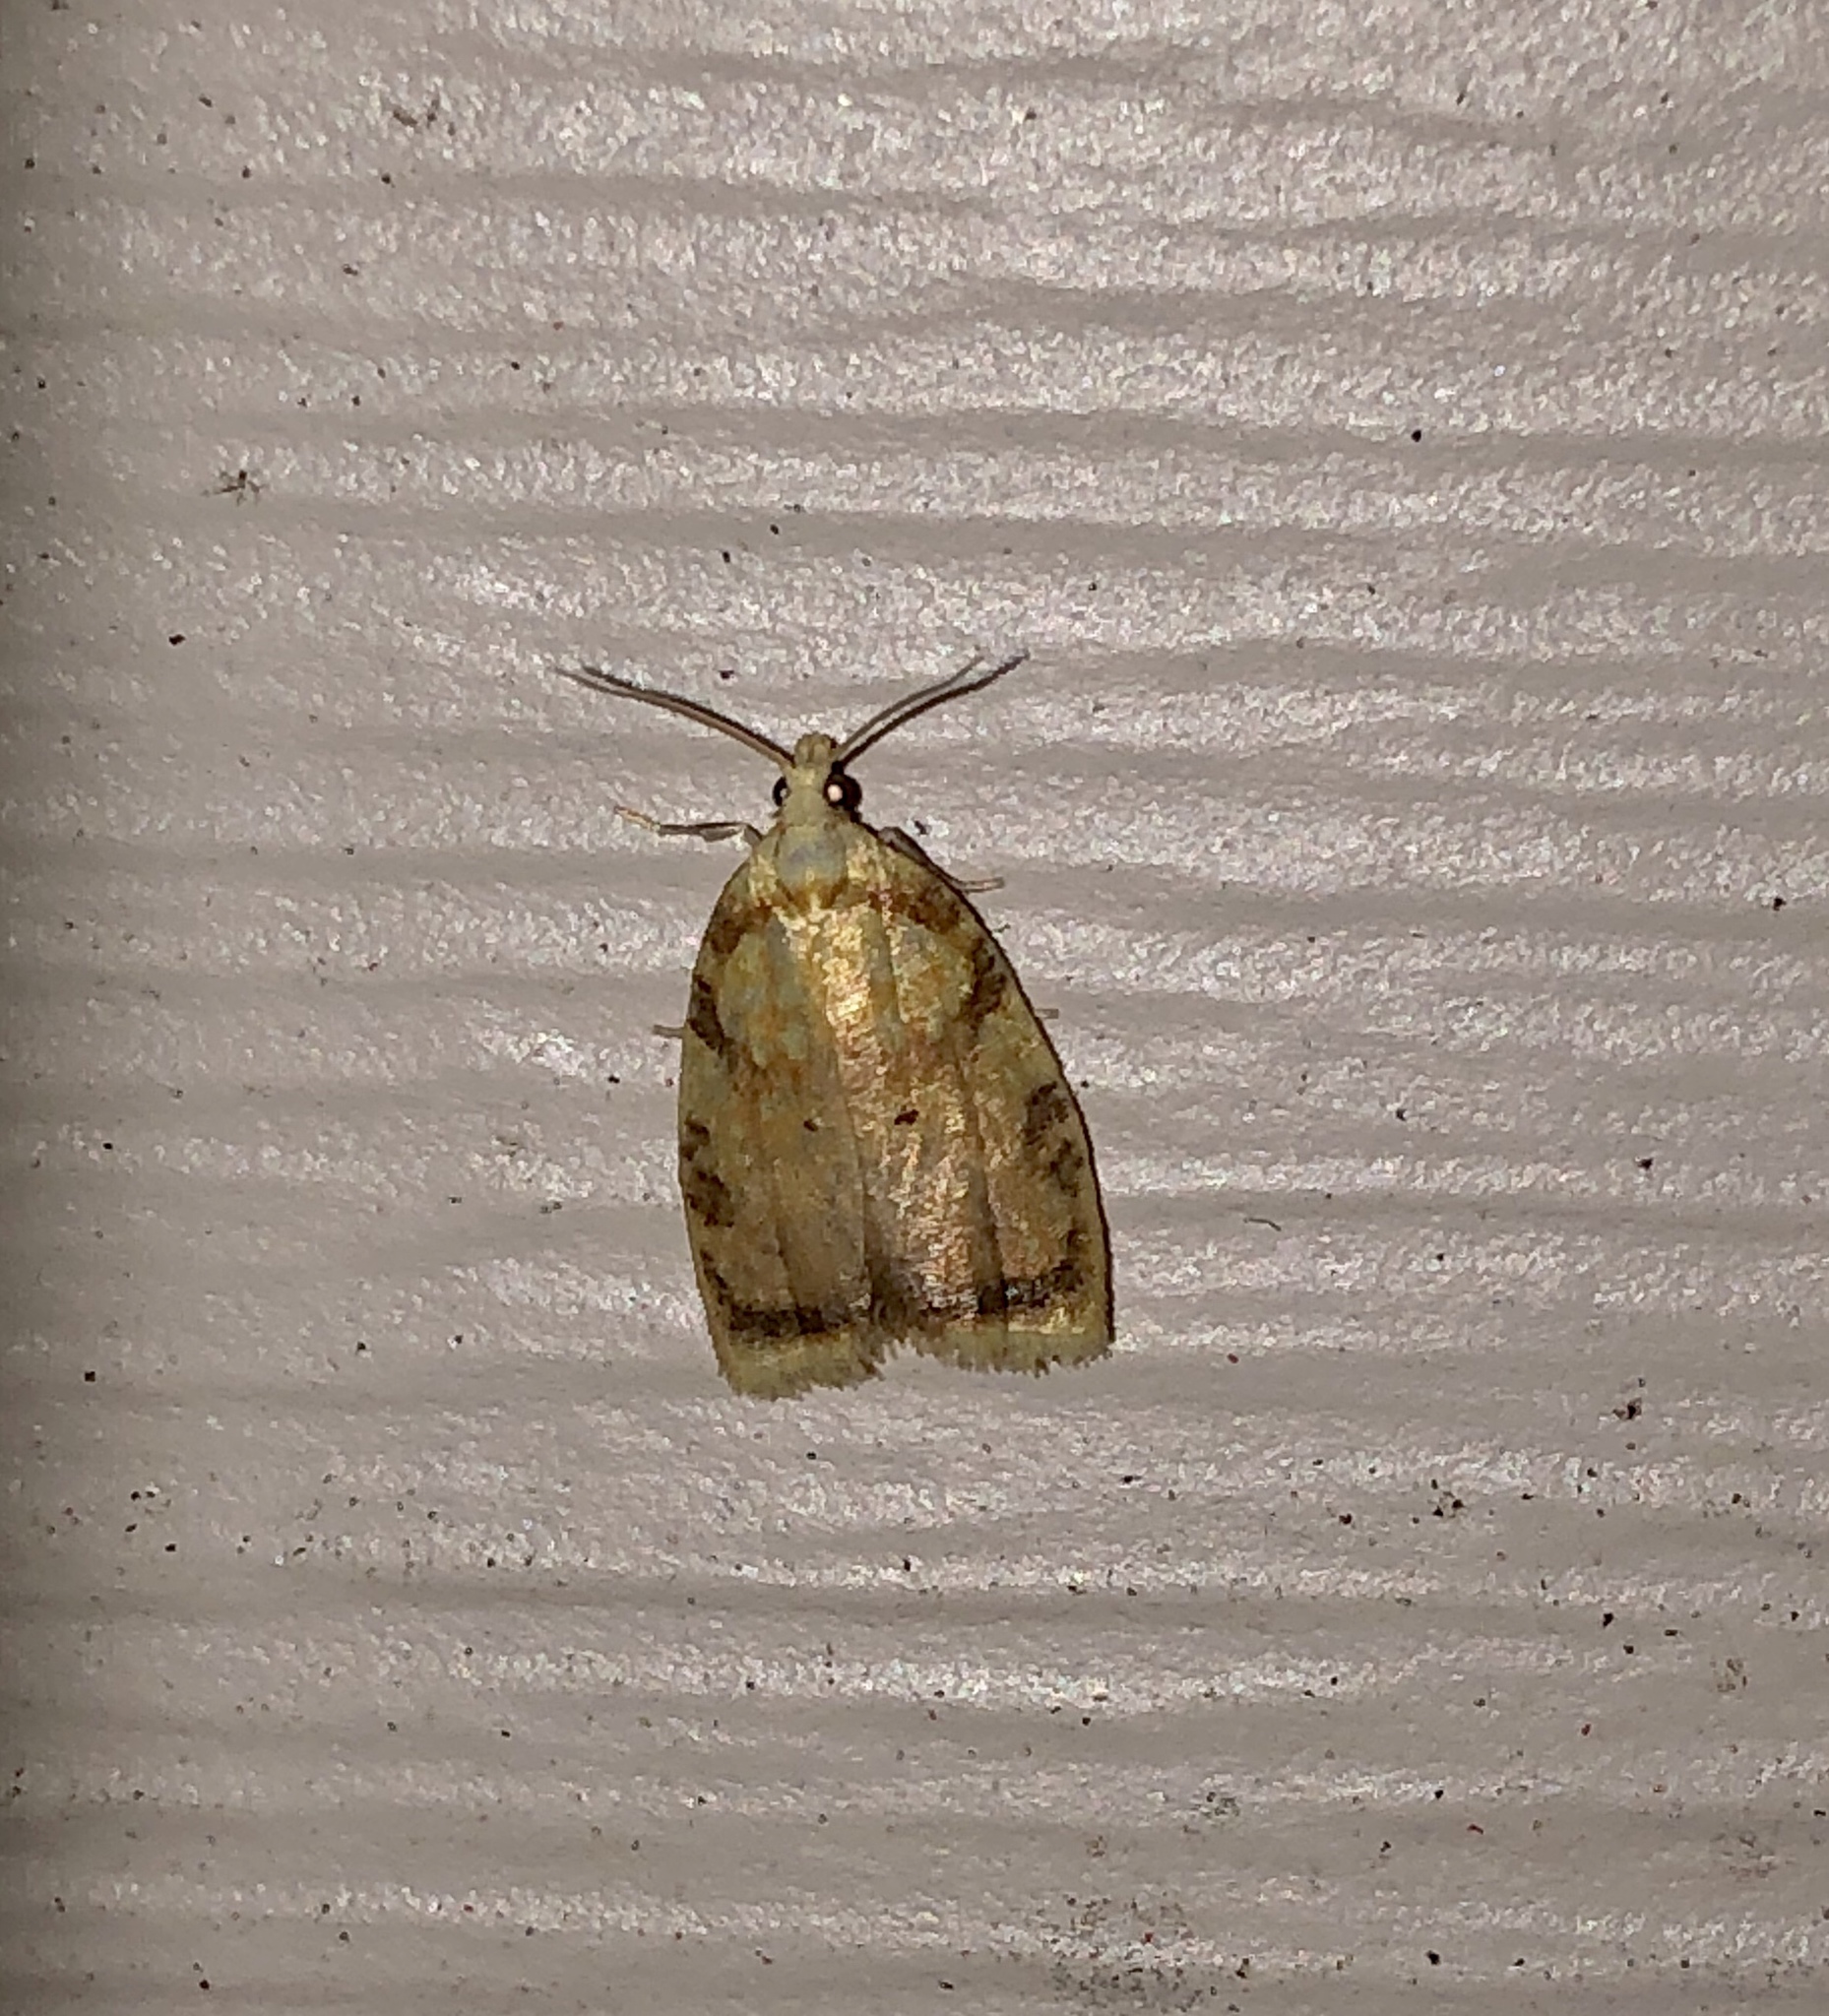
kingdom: Animalia
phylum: Arthropoda
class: Insecta
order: Lepidoptera
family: Tortricidae
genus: Acleris
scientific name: Acleris albicomana
